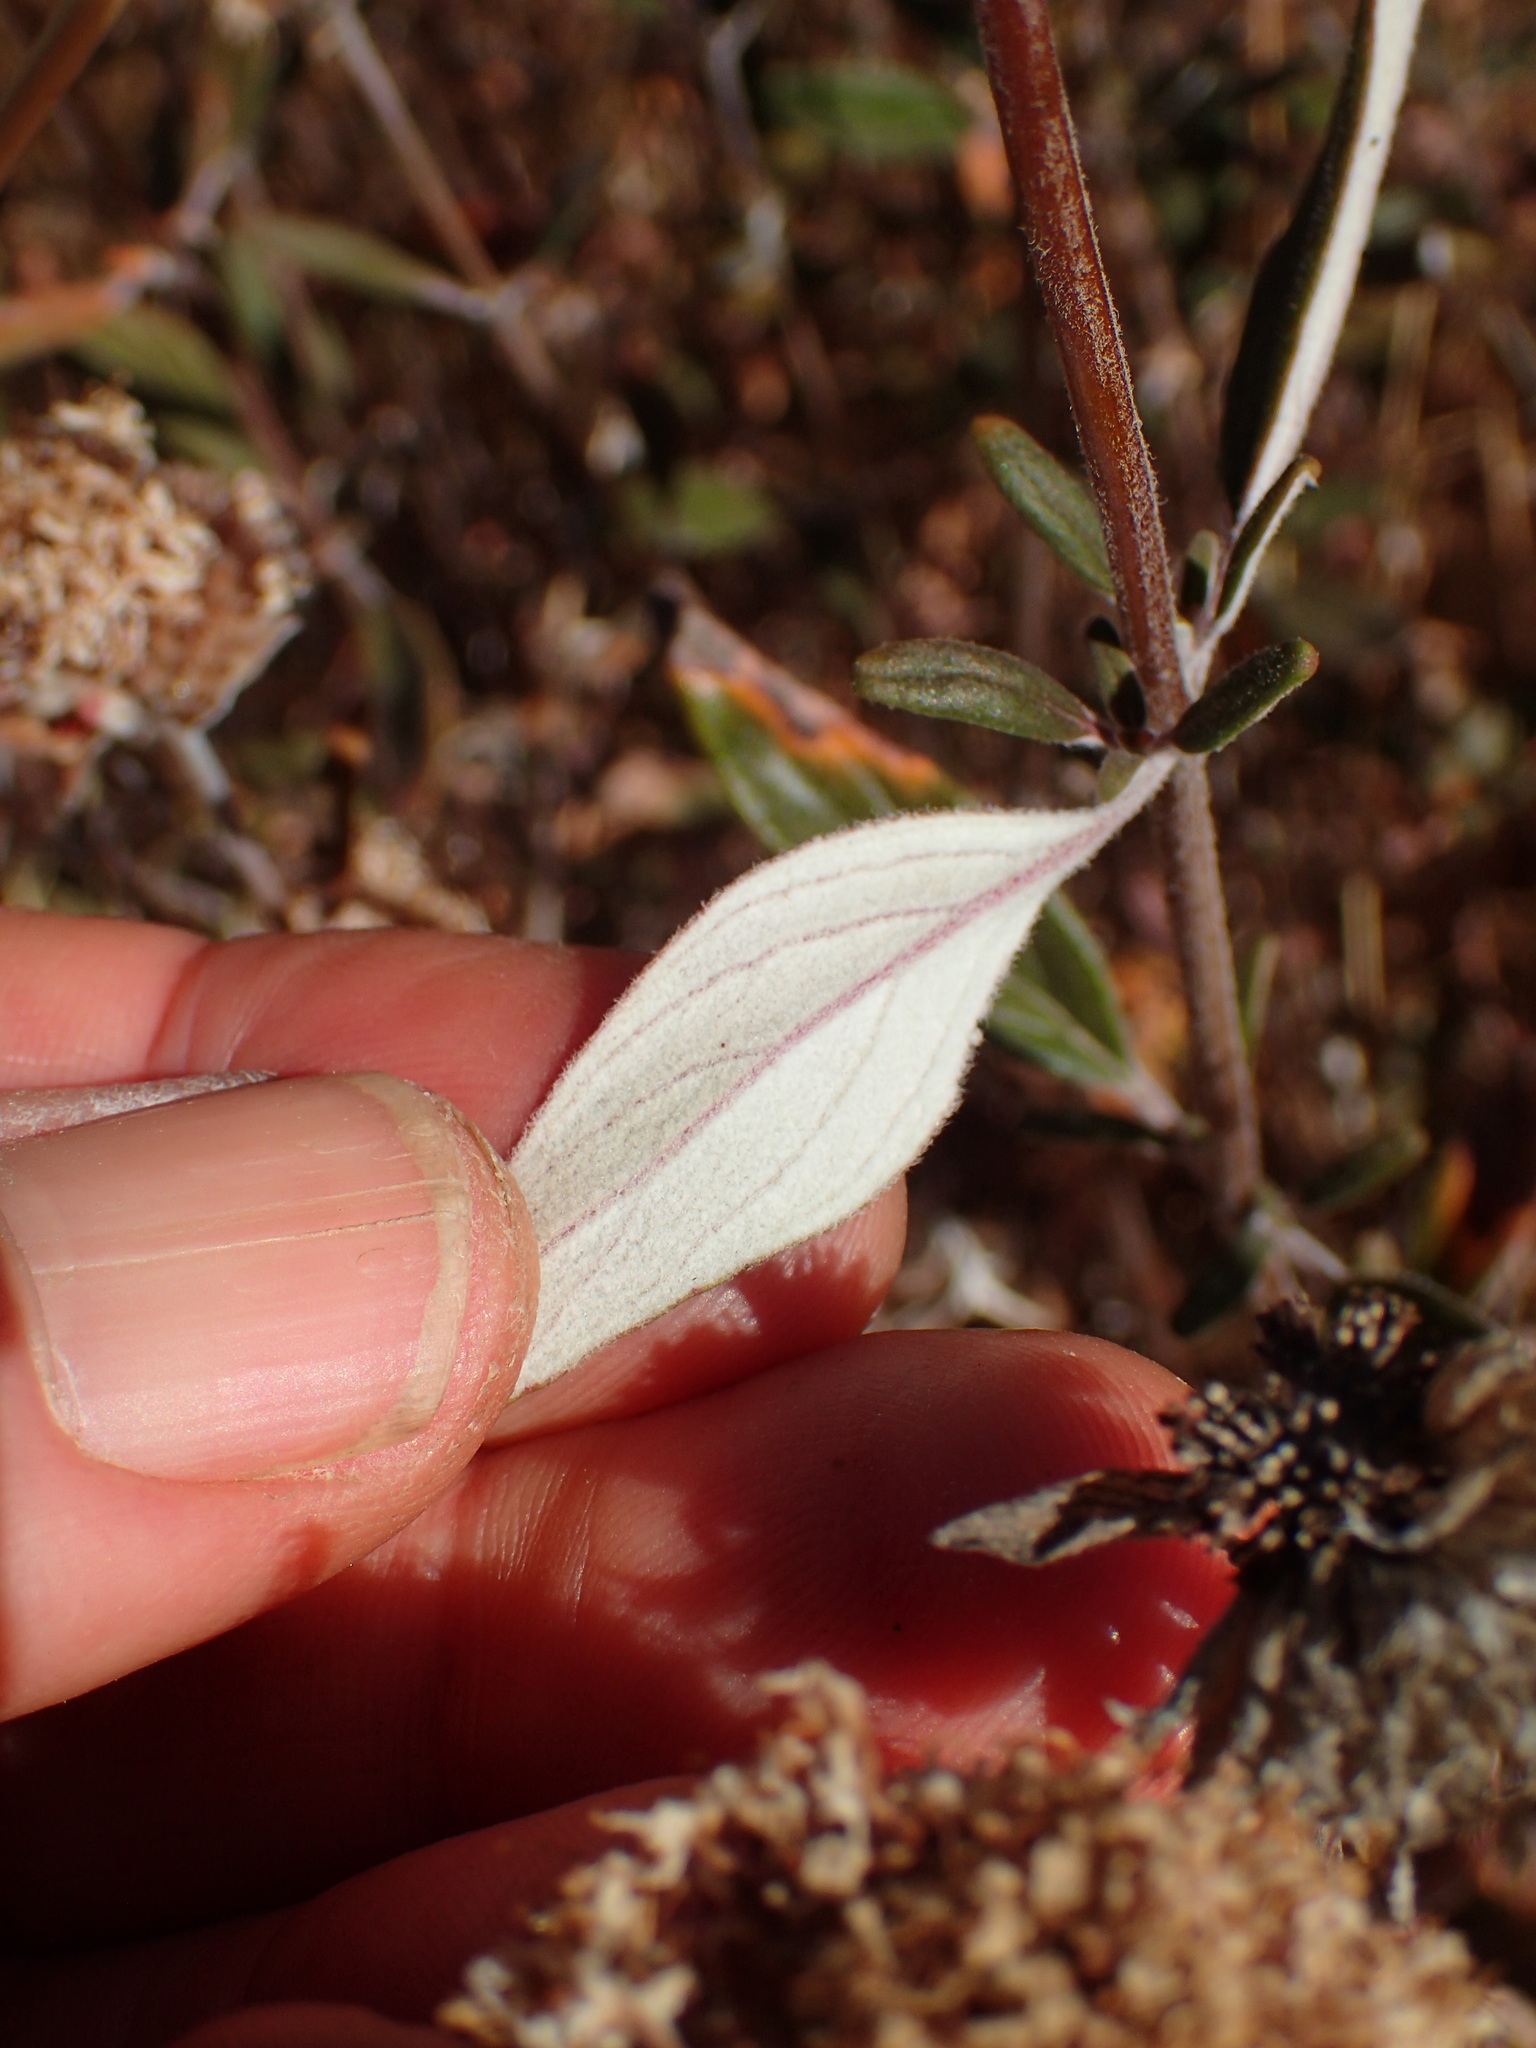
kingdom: Plantae
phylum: Tracheophyta
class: Magnoliopsida
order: Lamiales
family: Lamiaceae
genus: Monardella
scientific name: Monardella hypoleuca
